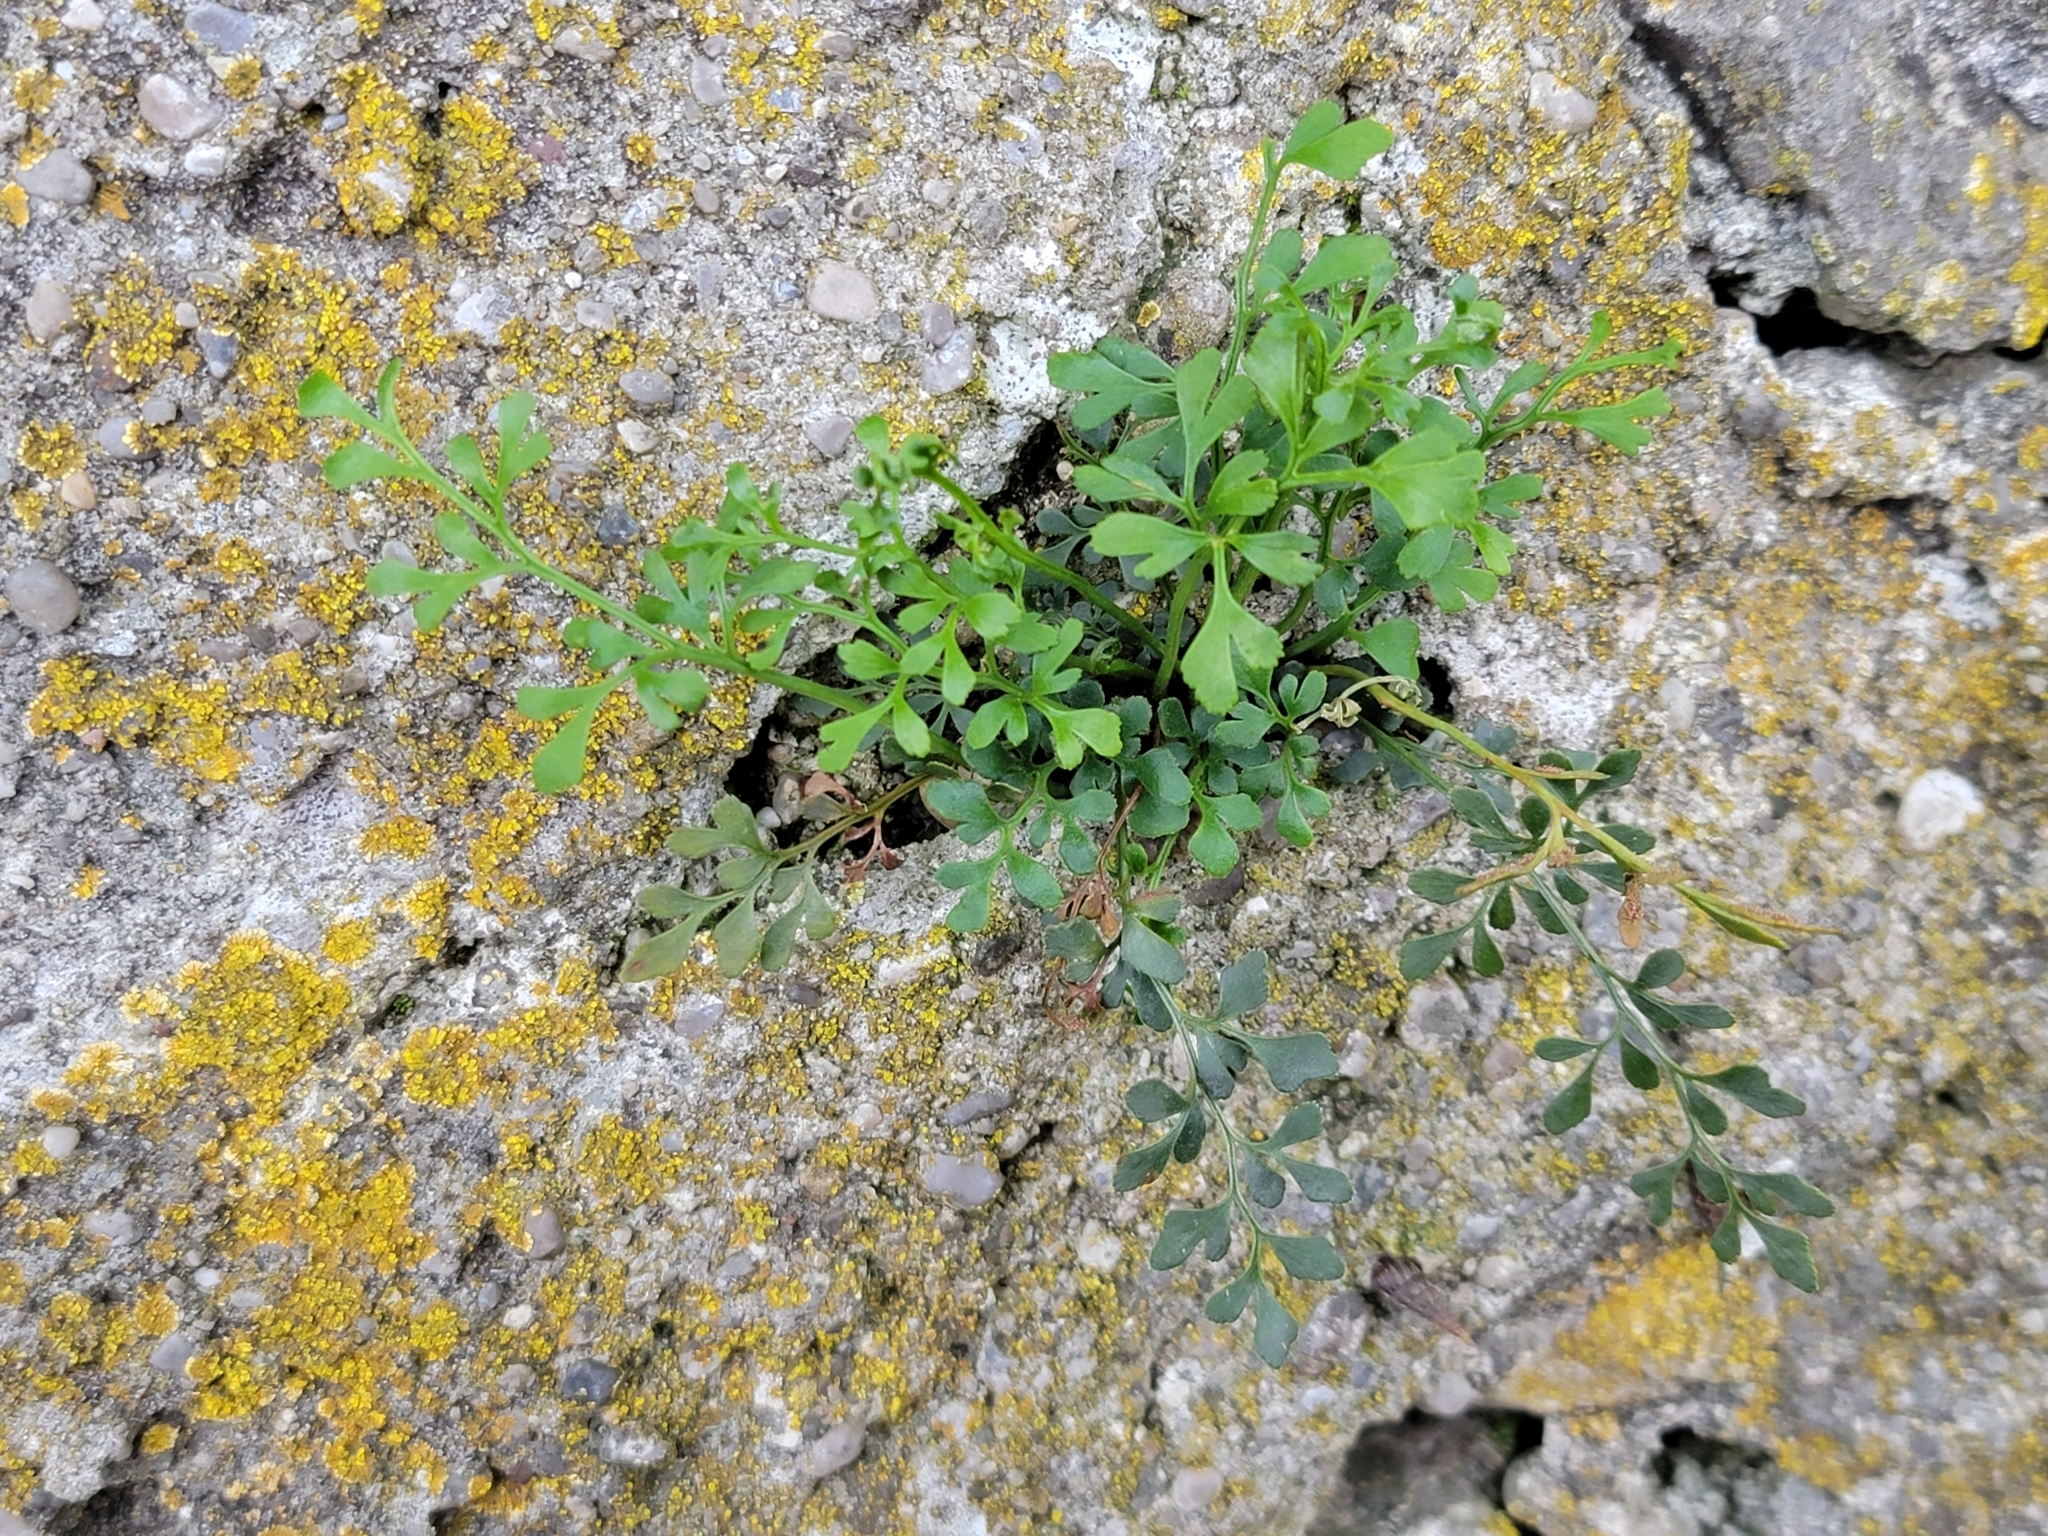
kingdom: Plantae
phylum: Tracheophyta
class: Polypodiopsida
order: Polypodiales
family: Aspleniaceae
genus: Asplenium
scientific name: Asplenium ruta-muraria
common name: Wall-rue
